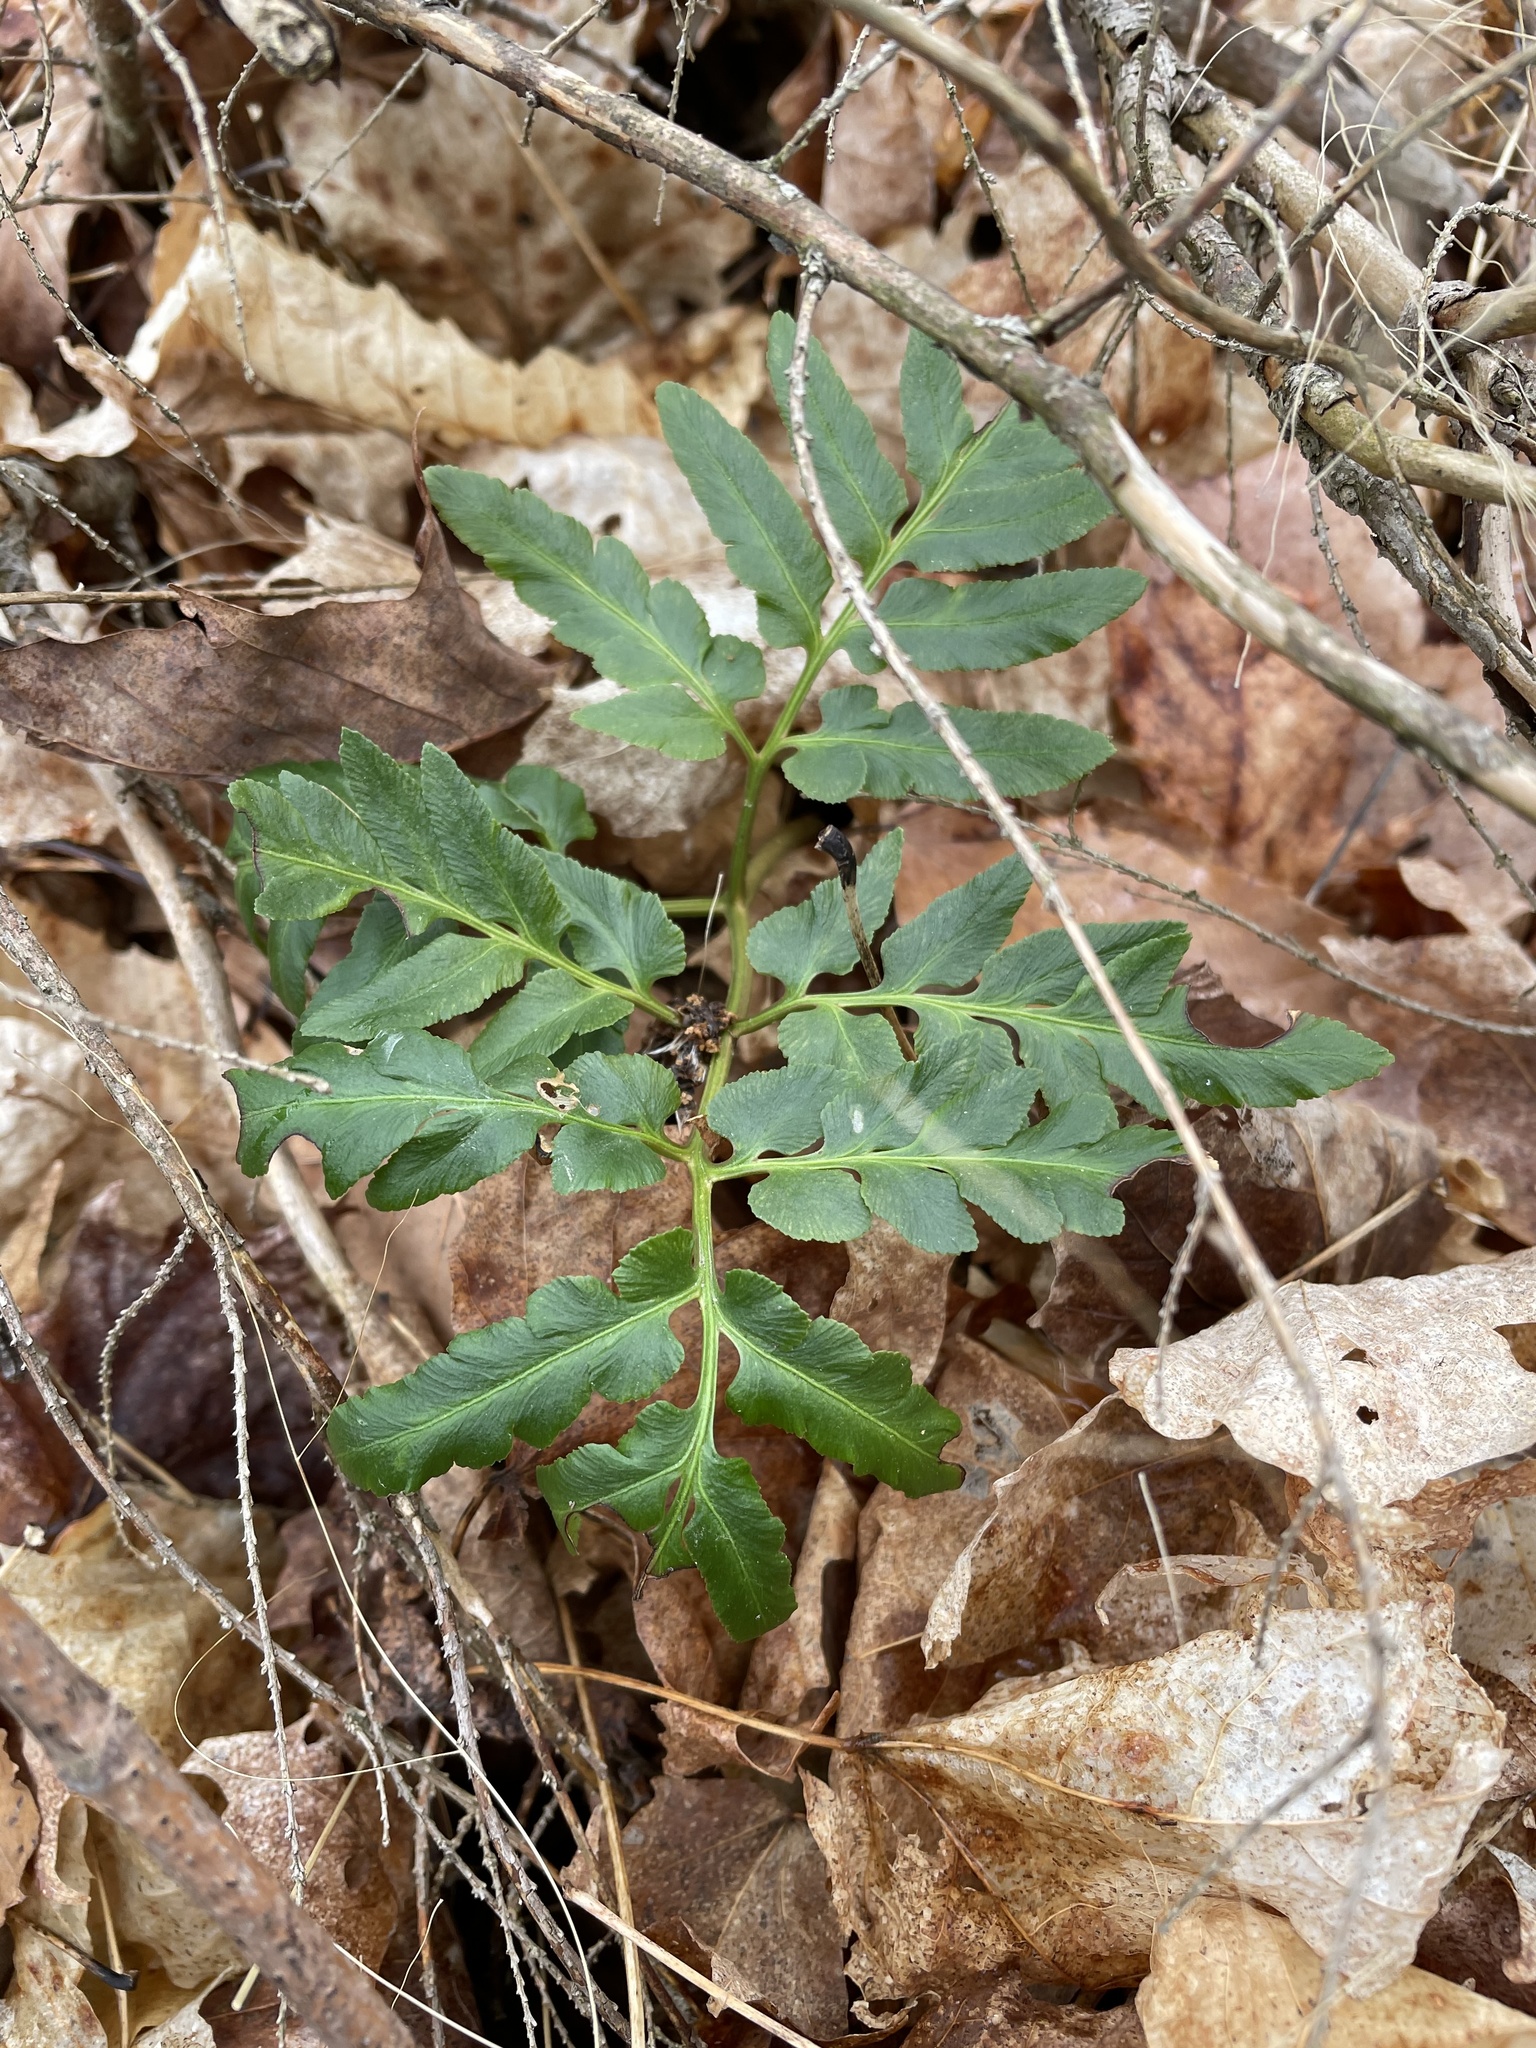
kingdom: Plantae
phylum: Tracheophyta
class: Polypodiopsida
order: Ophioglossales
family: Ophioglossaceae
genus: Sceptridium
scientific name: Sceptridium multifidum
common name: Leathery grape fern
